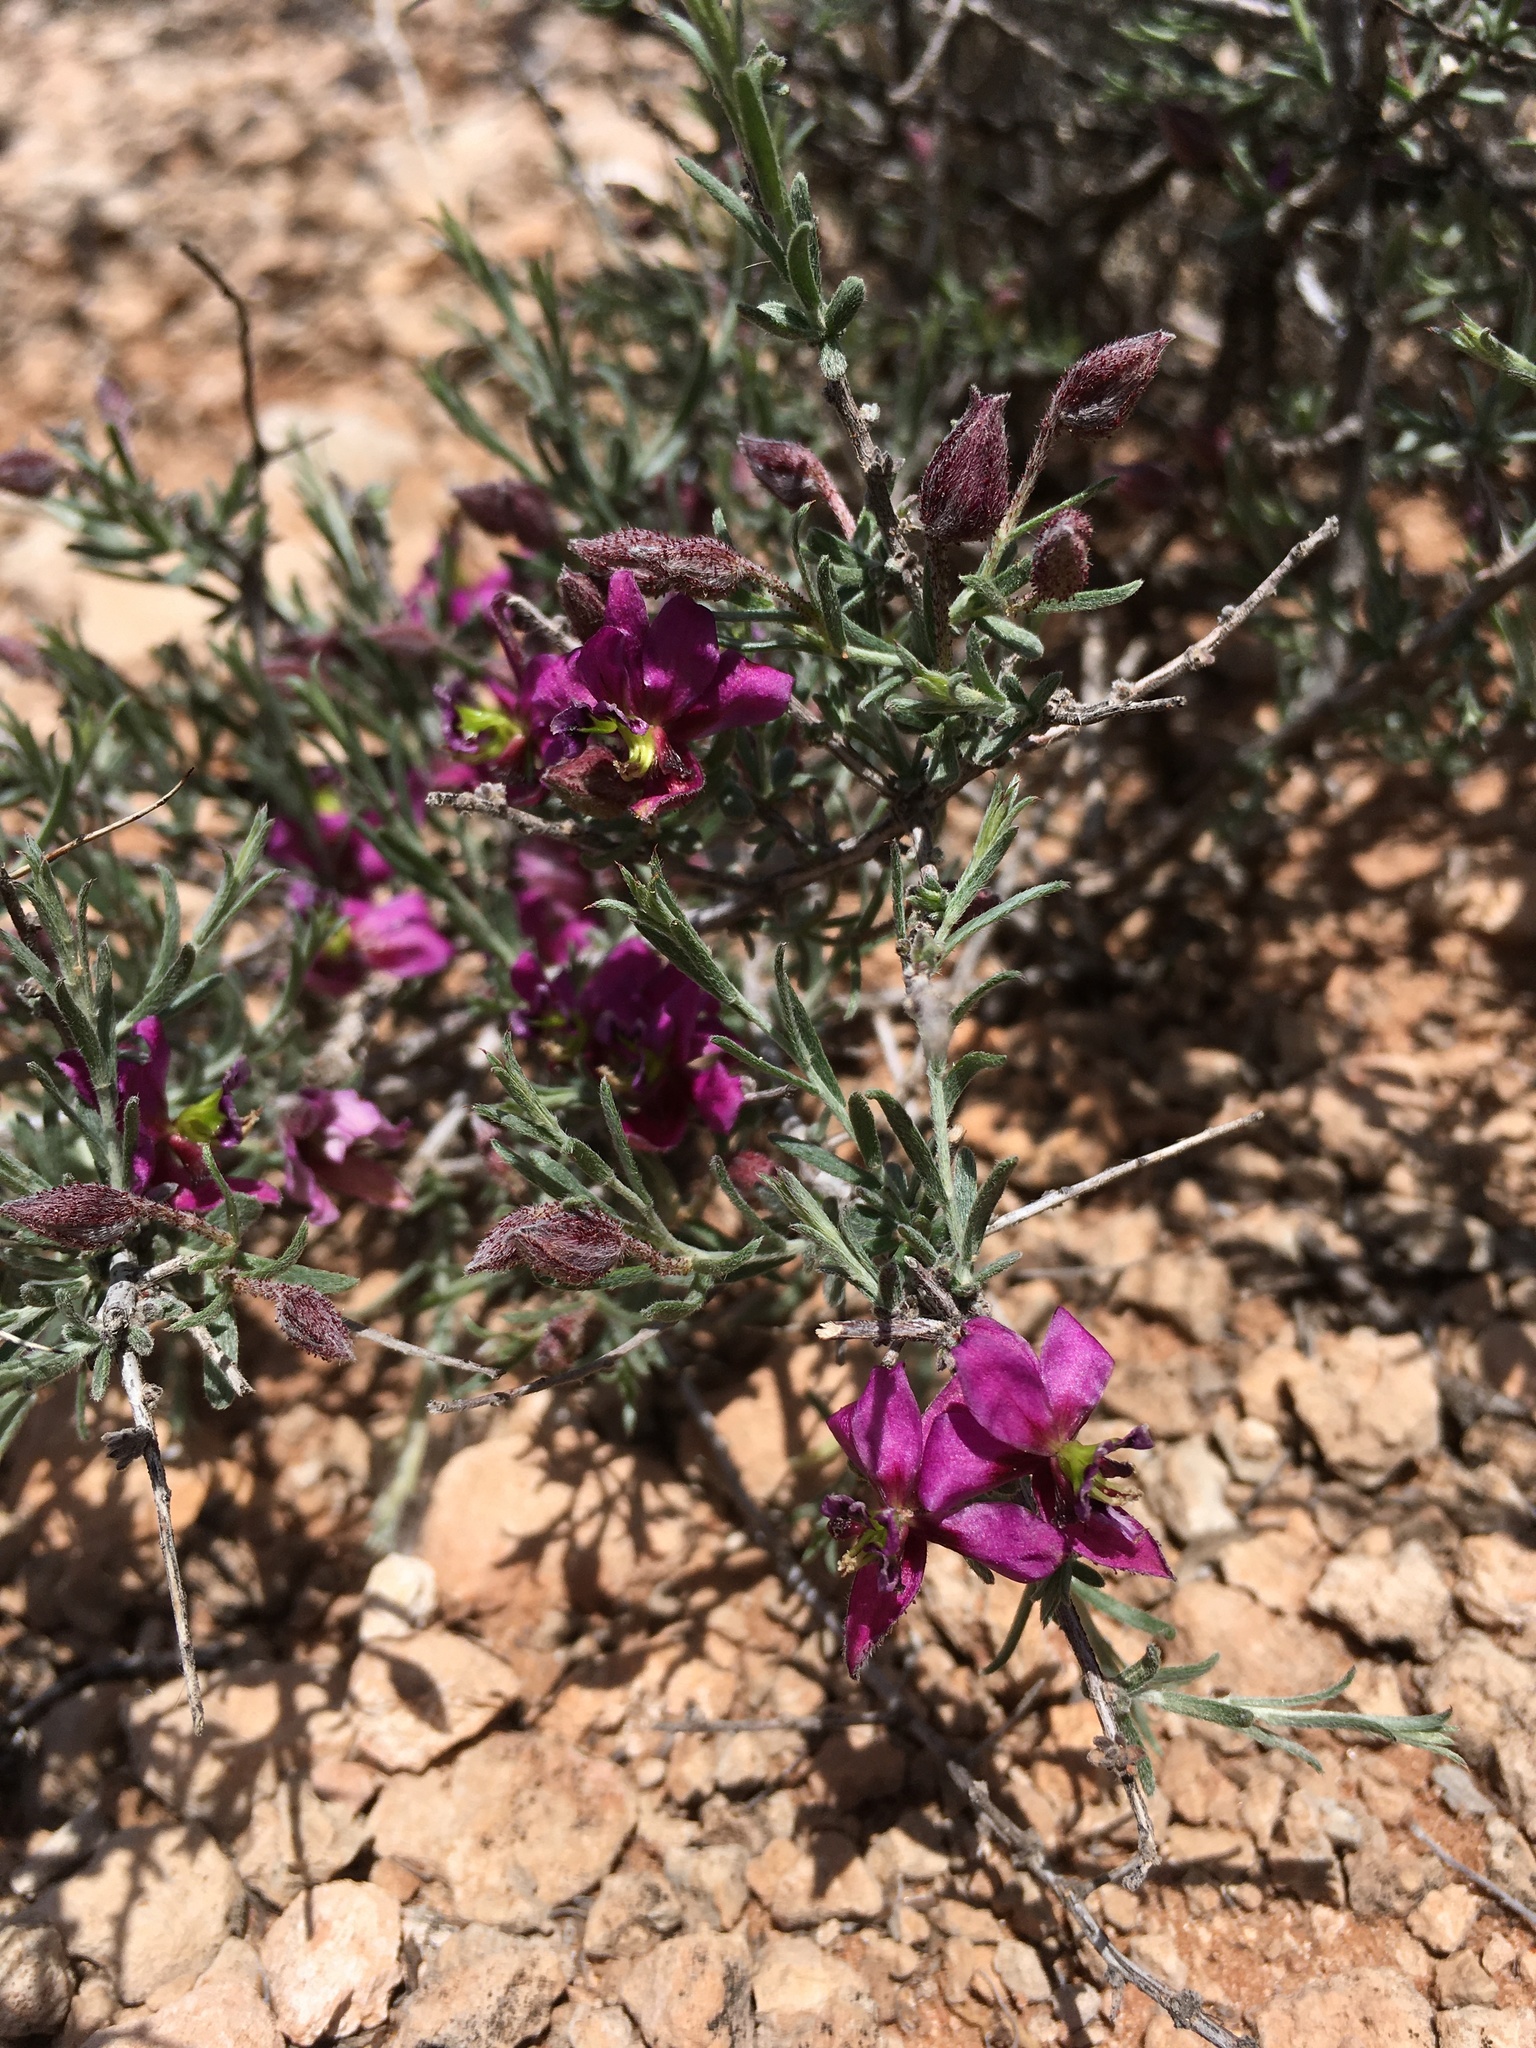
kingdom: Plantae
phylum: Tracheophyta
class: Magnoliopsida
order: Zygophyllales
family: Krameriaceae
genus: Krameria
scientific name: Krameria erecta
